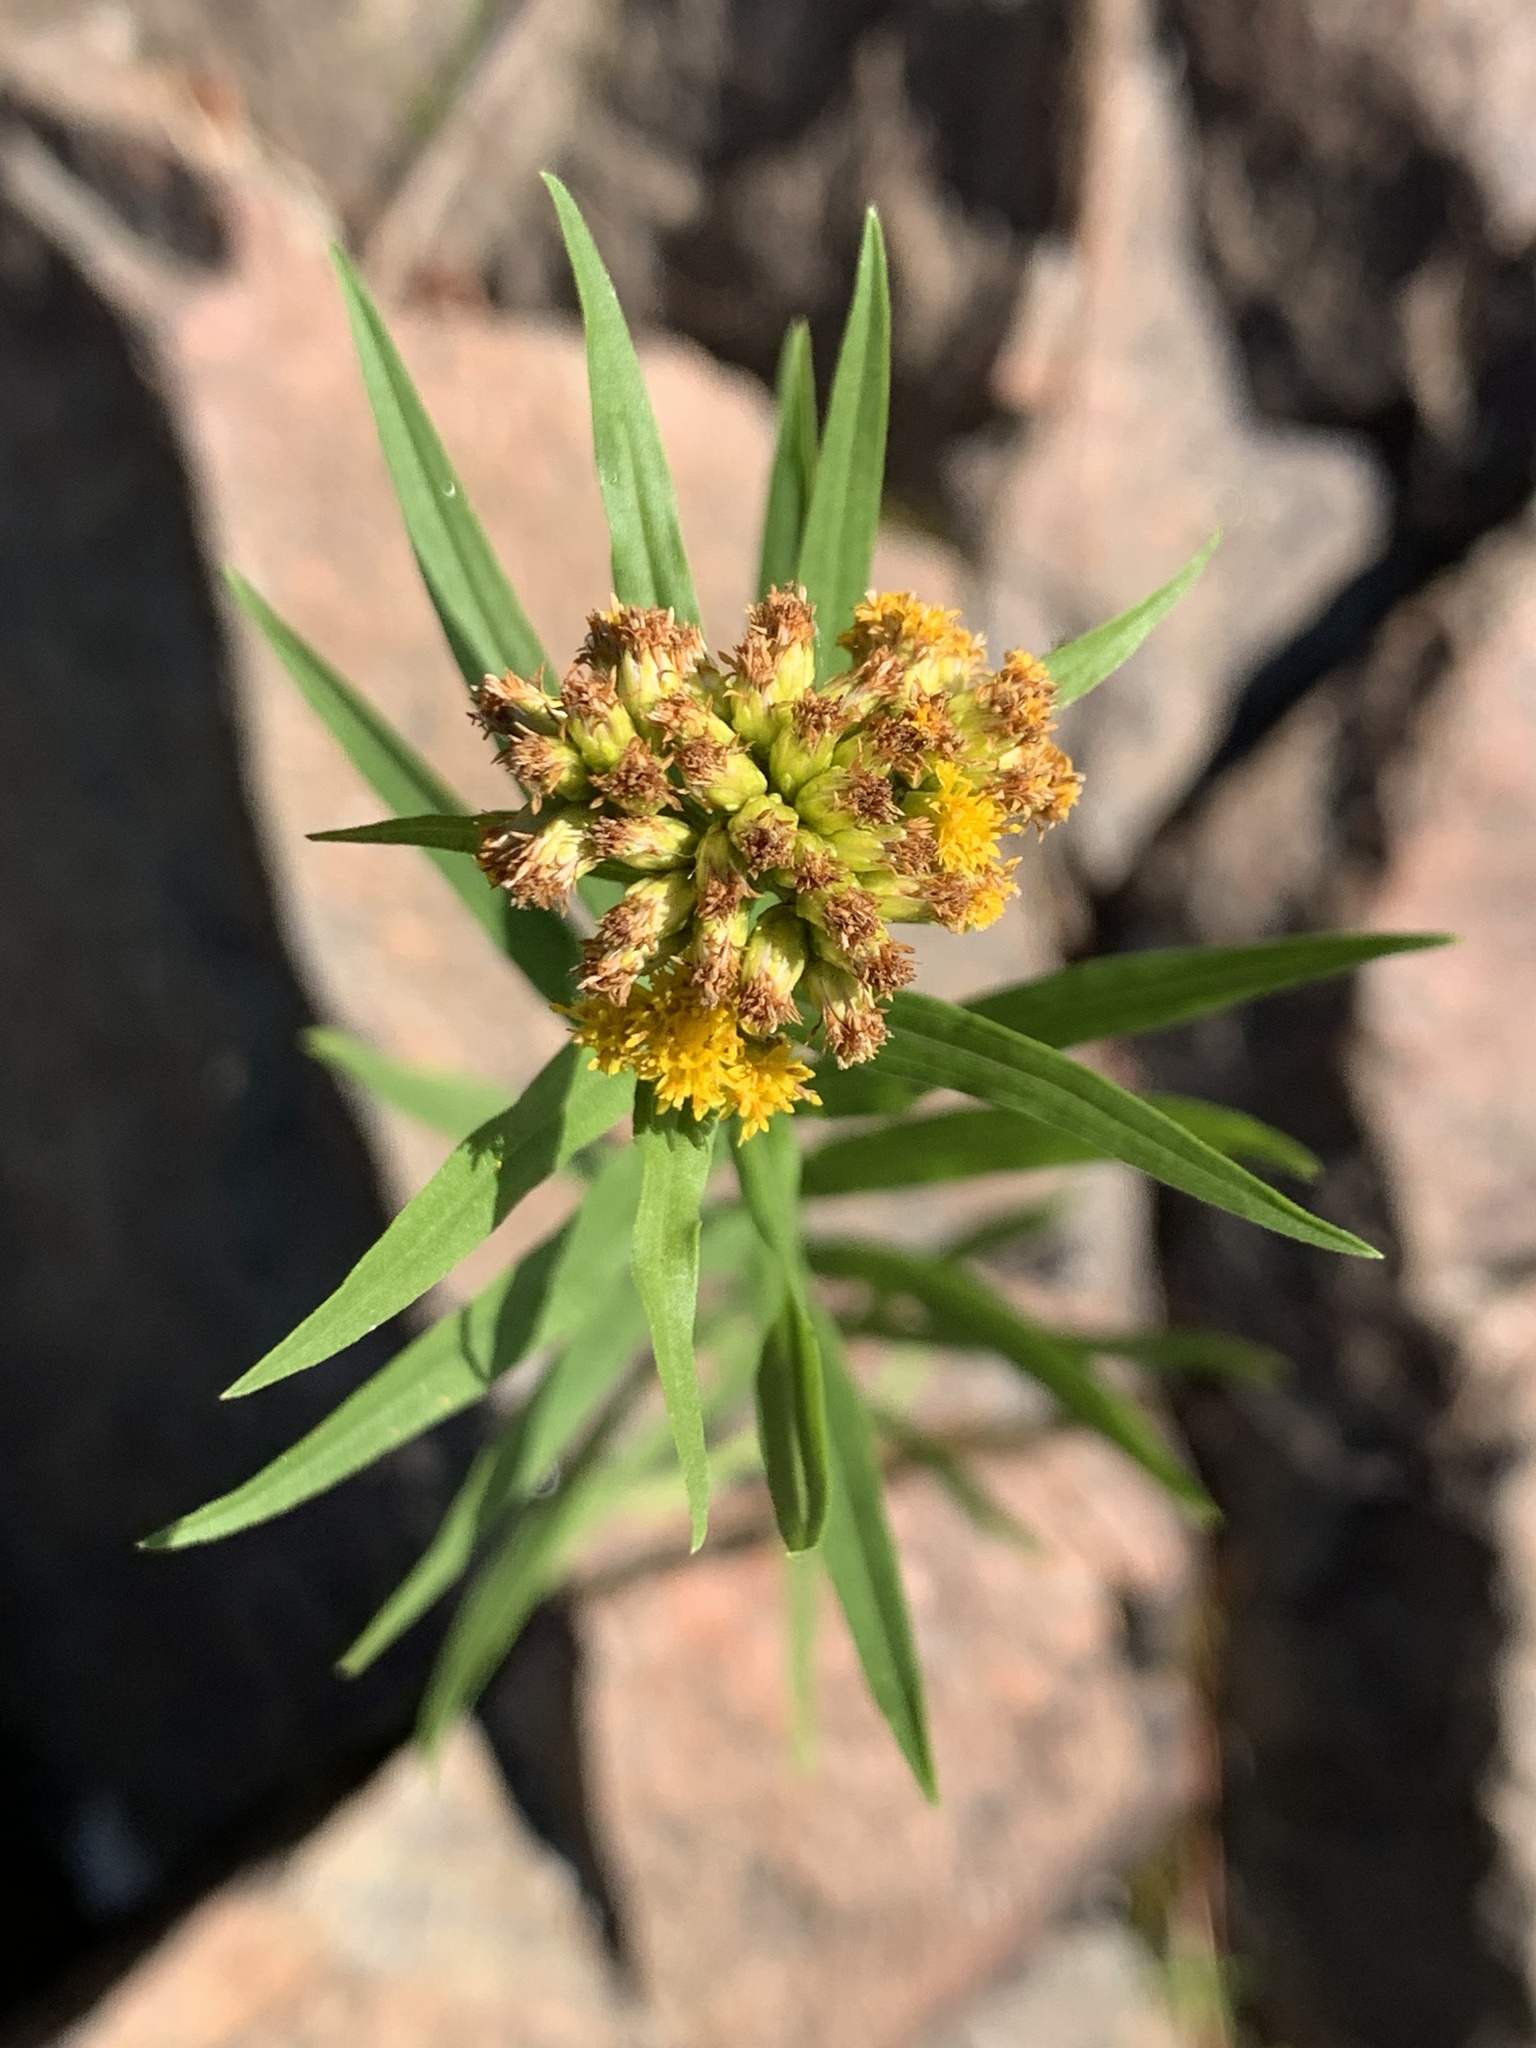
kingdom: Plantae
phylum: Tracheophyta
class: Magnoliopsida
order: Asterales
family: Asteraceae
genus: Euthamia
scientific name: Euthamia graminifolia
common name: Common goldentop
